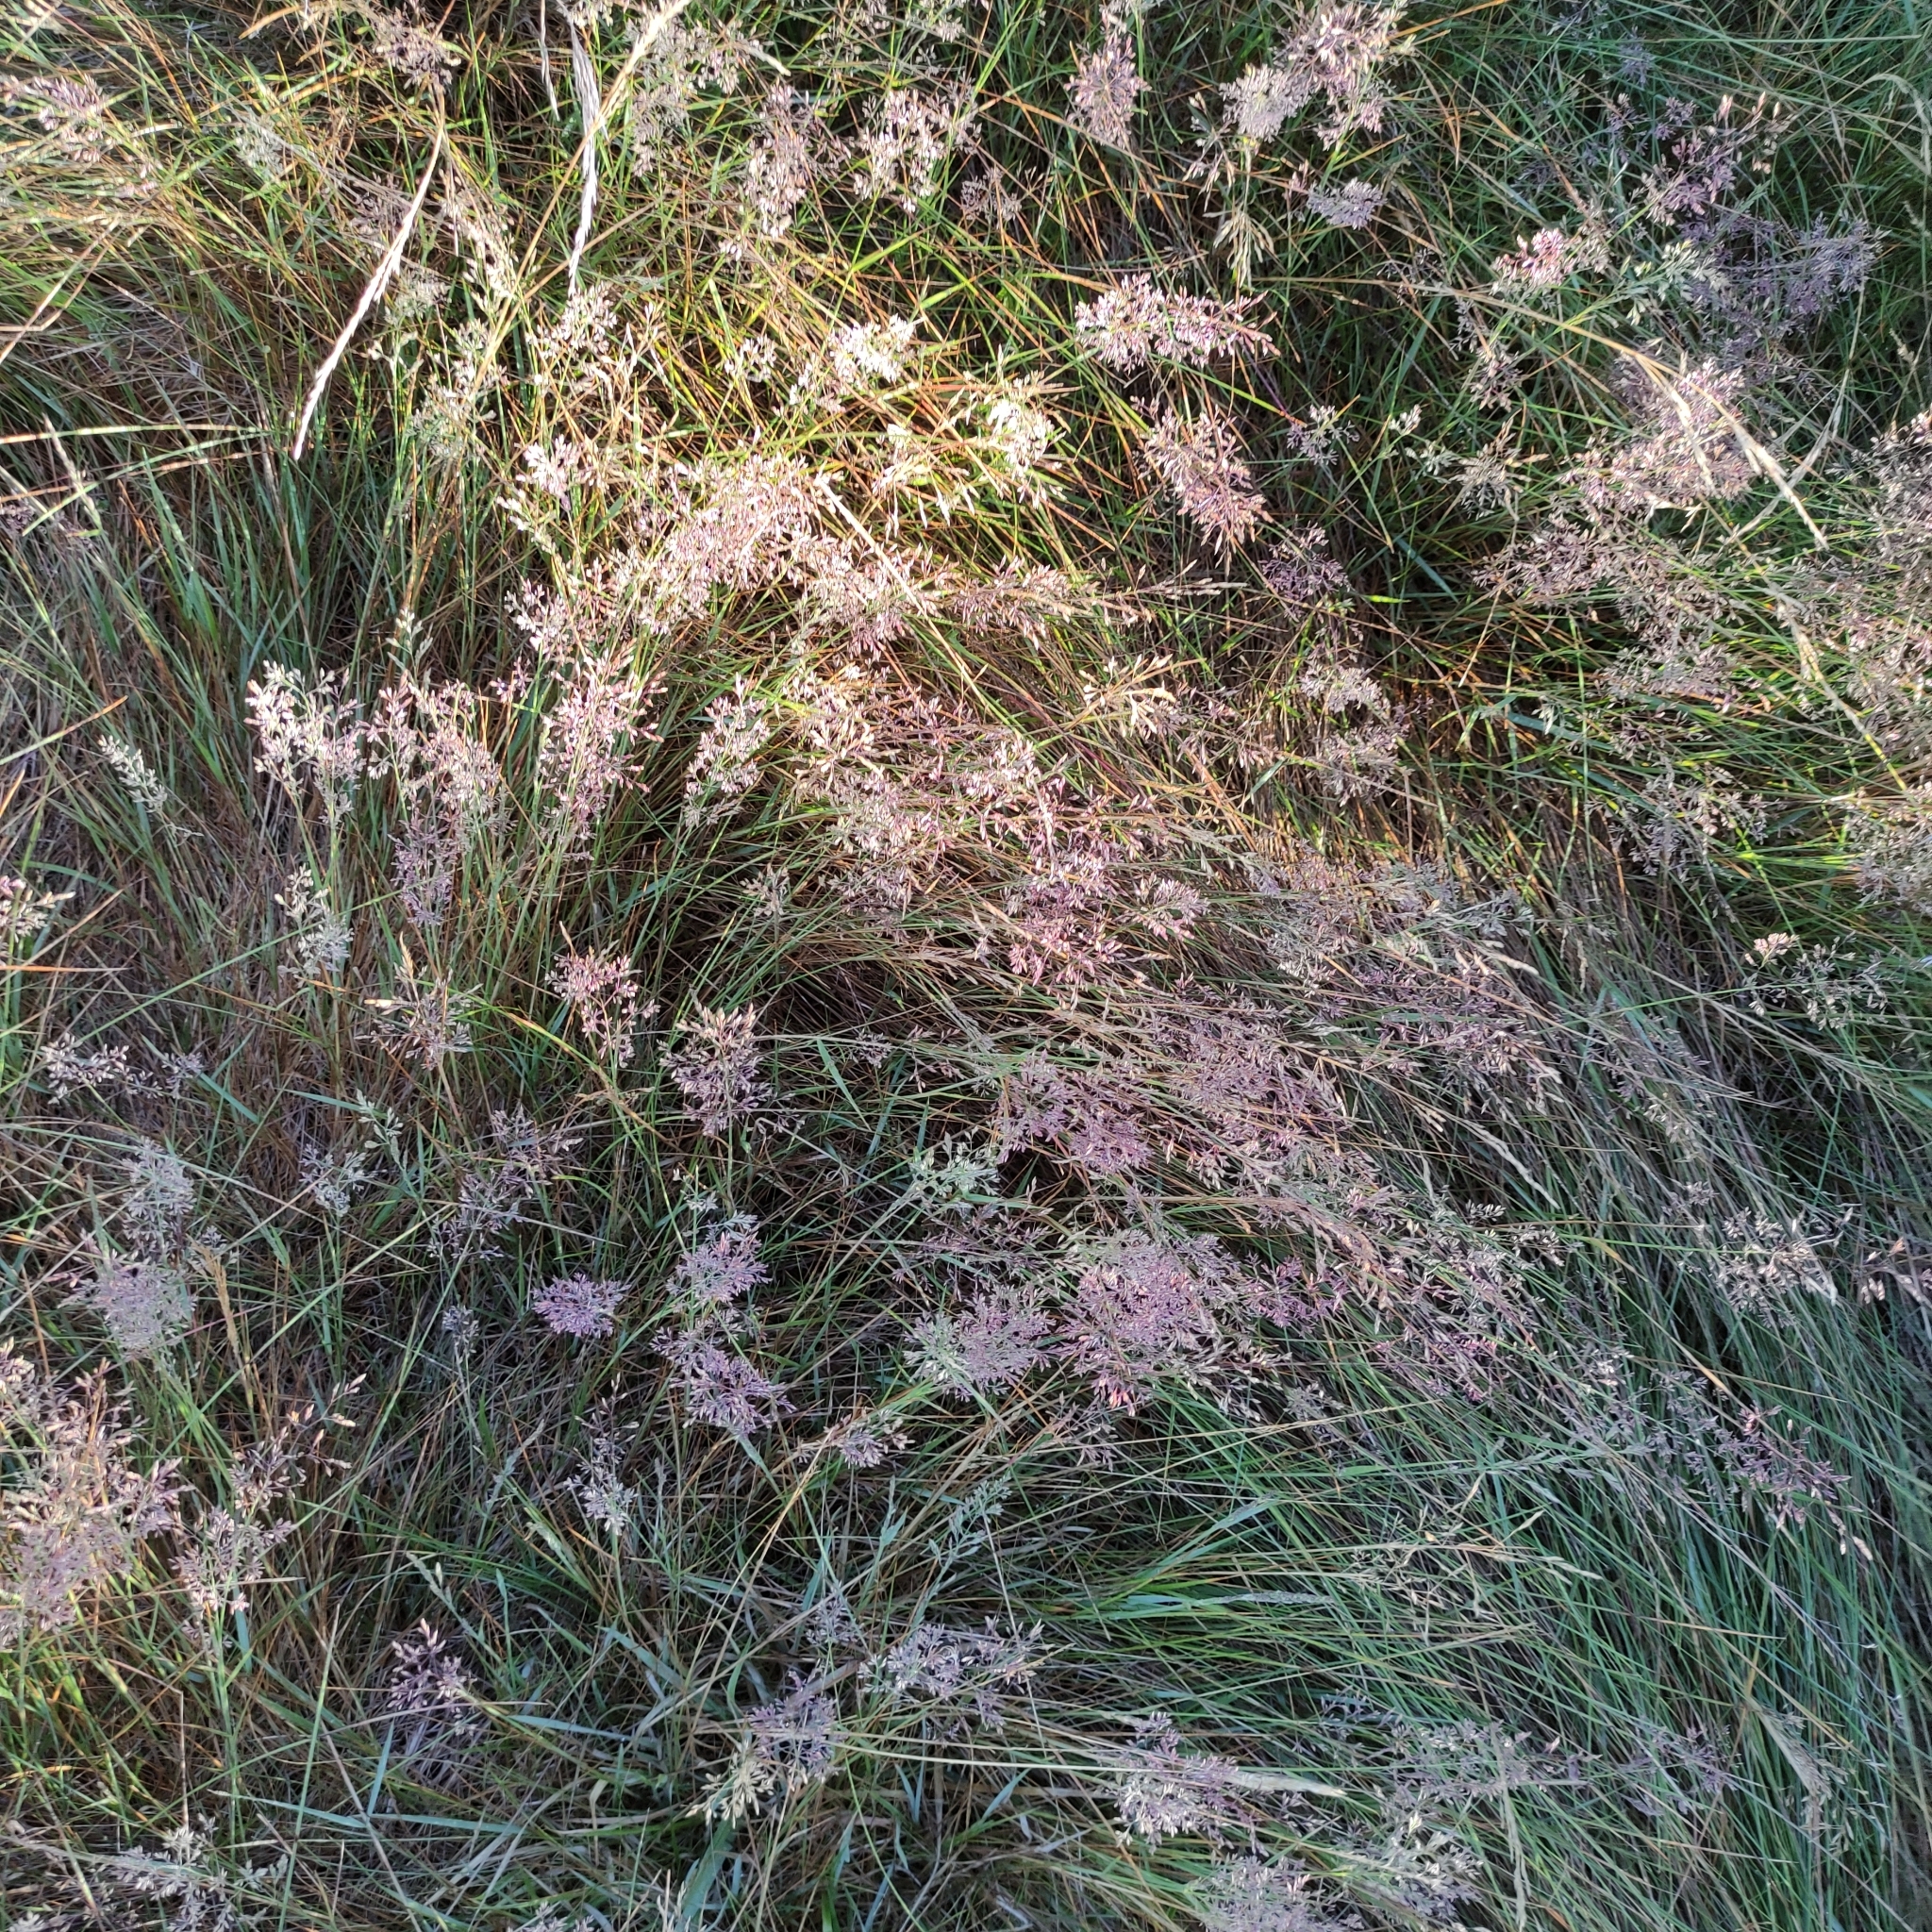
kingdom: Plantae
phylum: Tracheophyta
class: Liliopsida
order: Poales
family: Poaceae
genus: Holcus
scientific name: Holcus lanatus
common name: Yorkshire-fog
